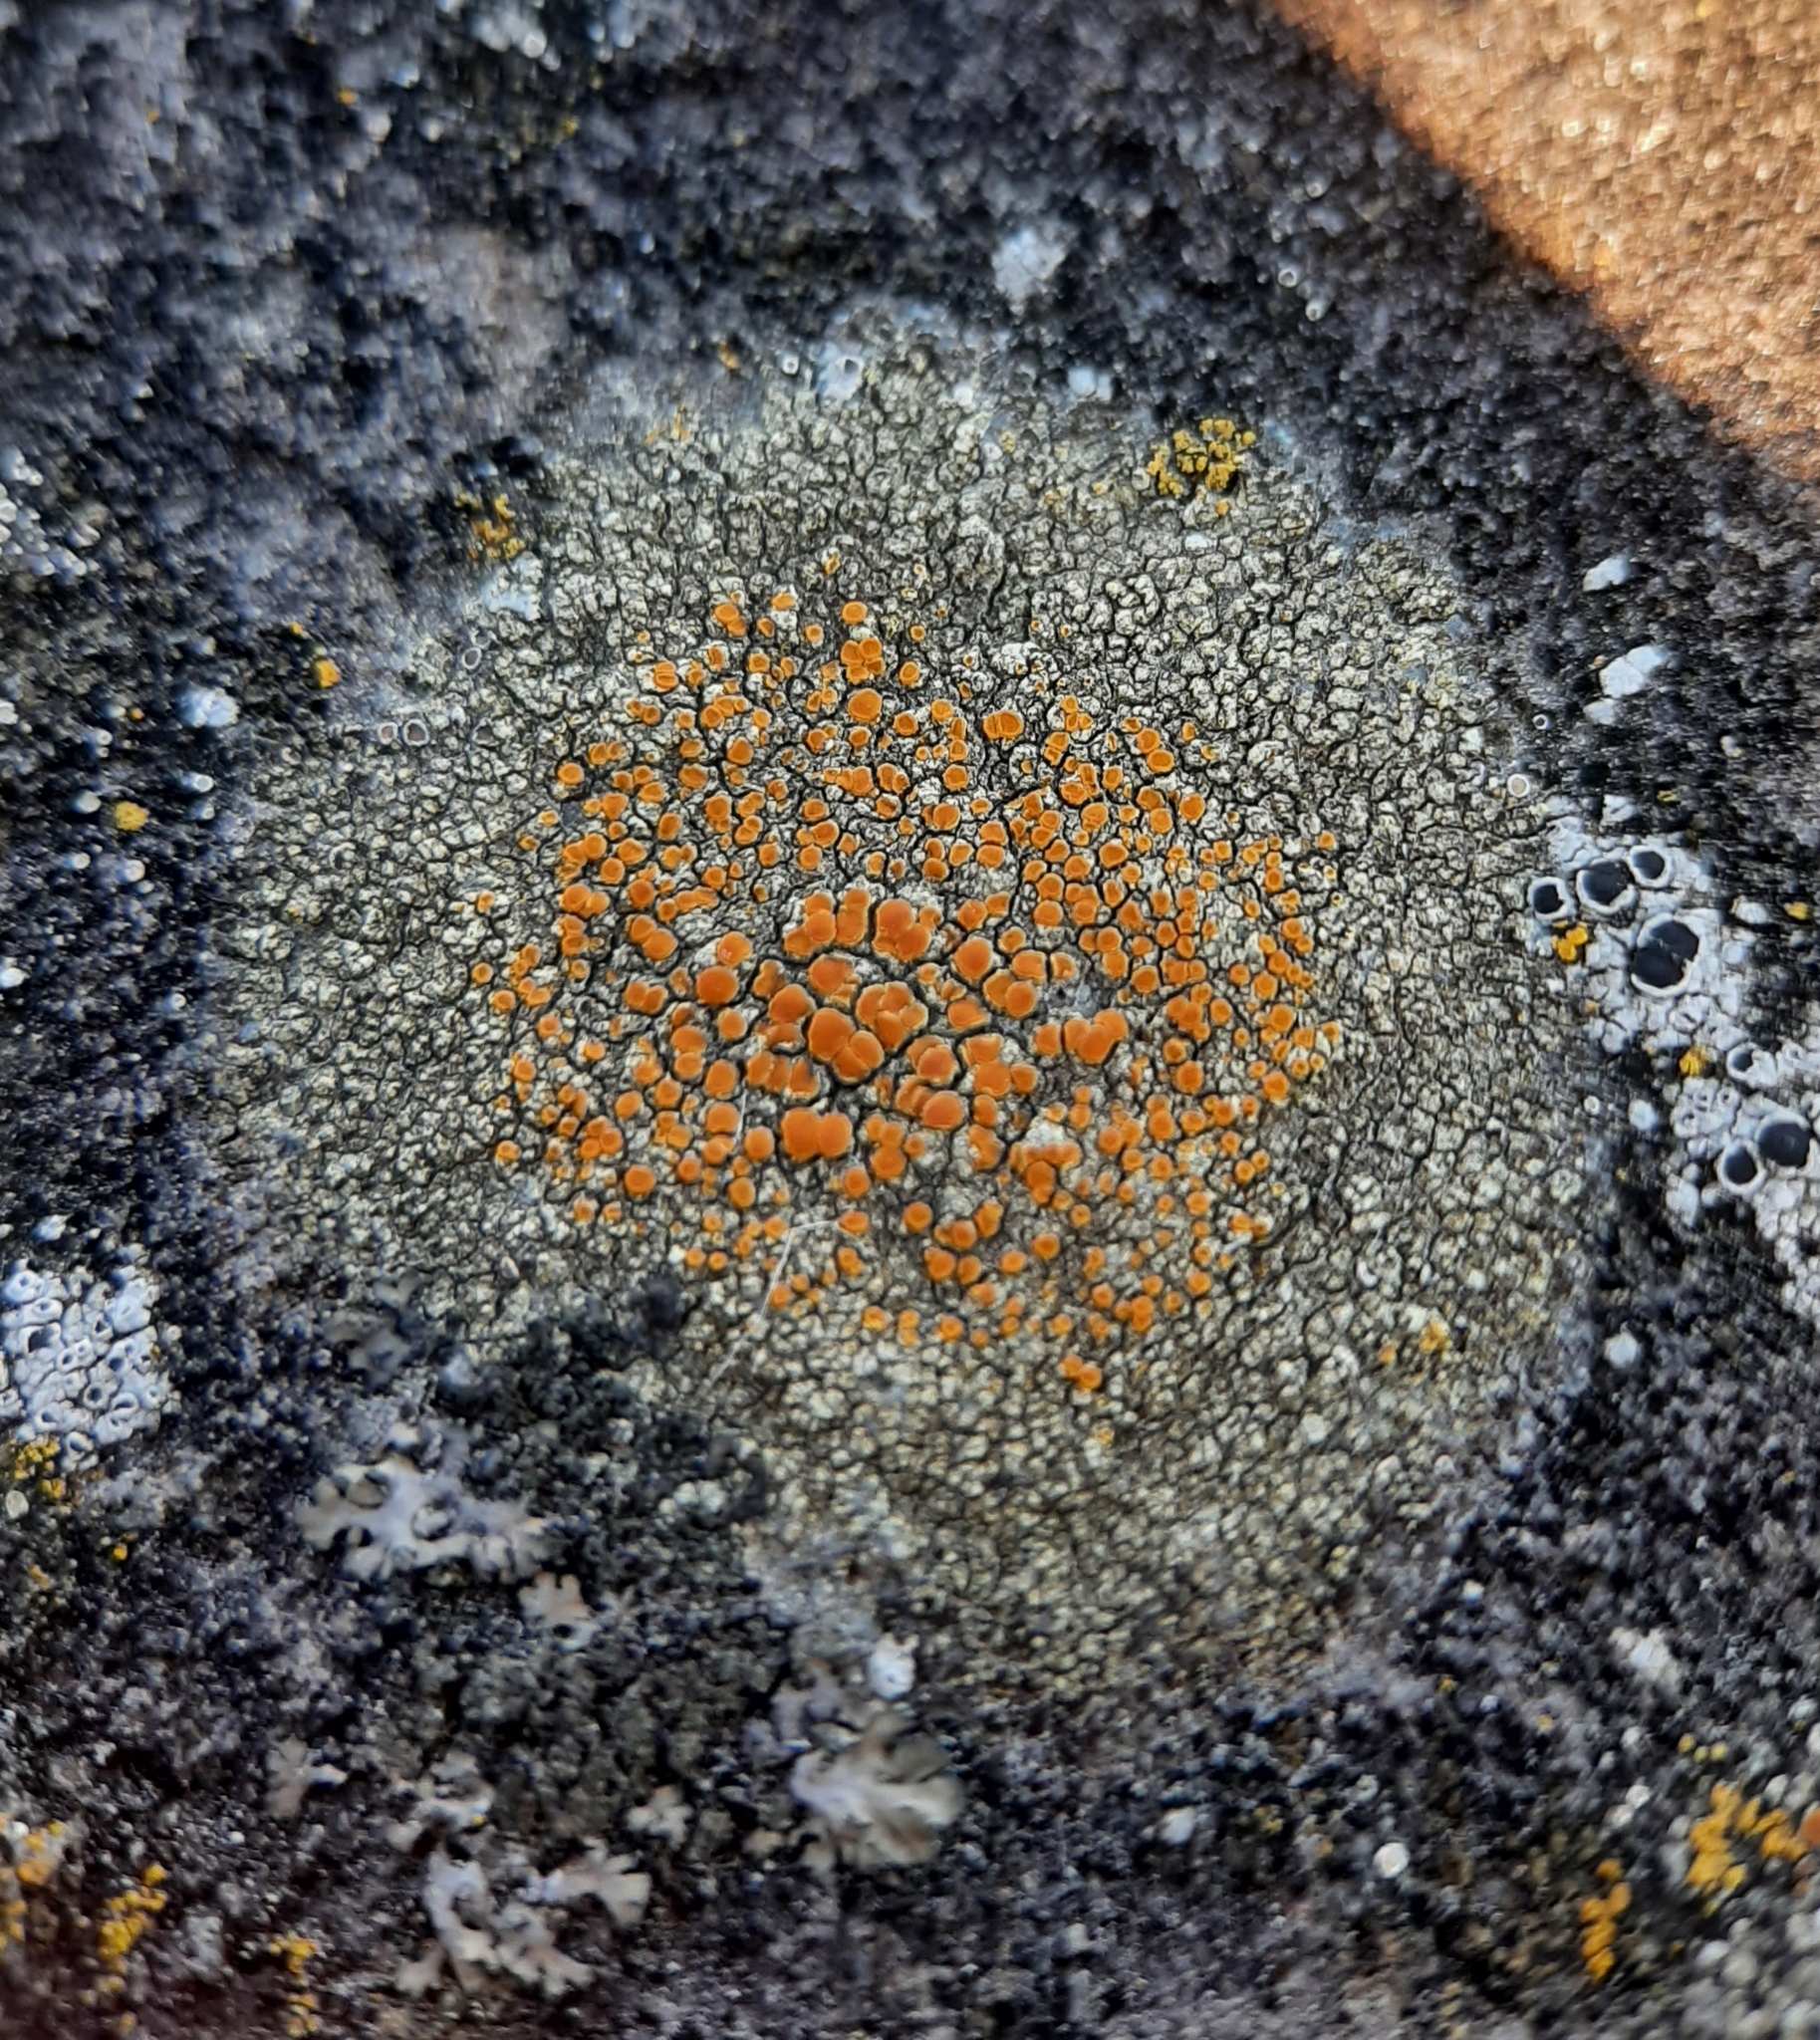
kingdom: Fungi
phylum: Ascomycota
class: Lecanoromycetes
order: Teloschistales
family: Teloschistaceae
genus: Gyalolechia
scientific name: Gyalolechia flavovirescens
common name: Sulphur firedot
